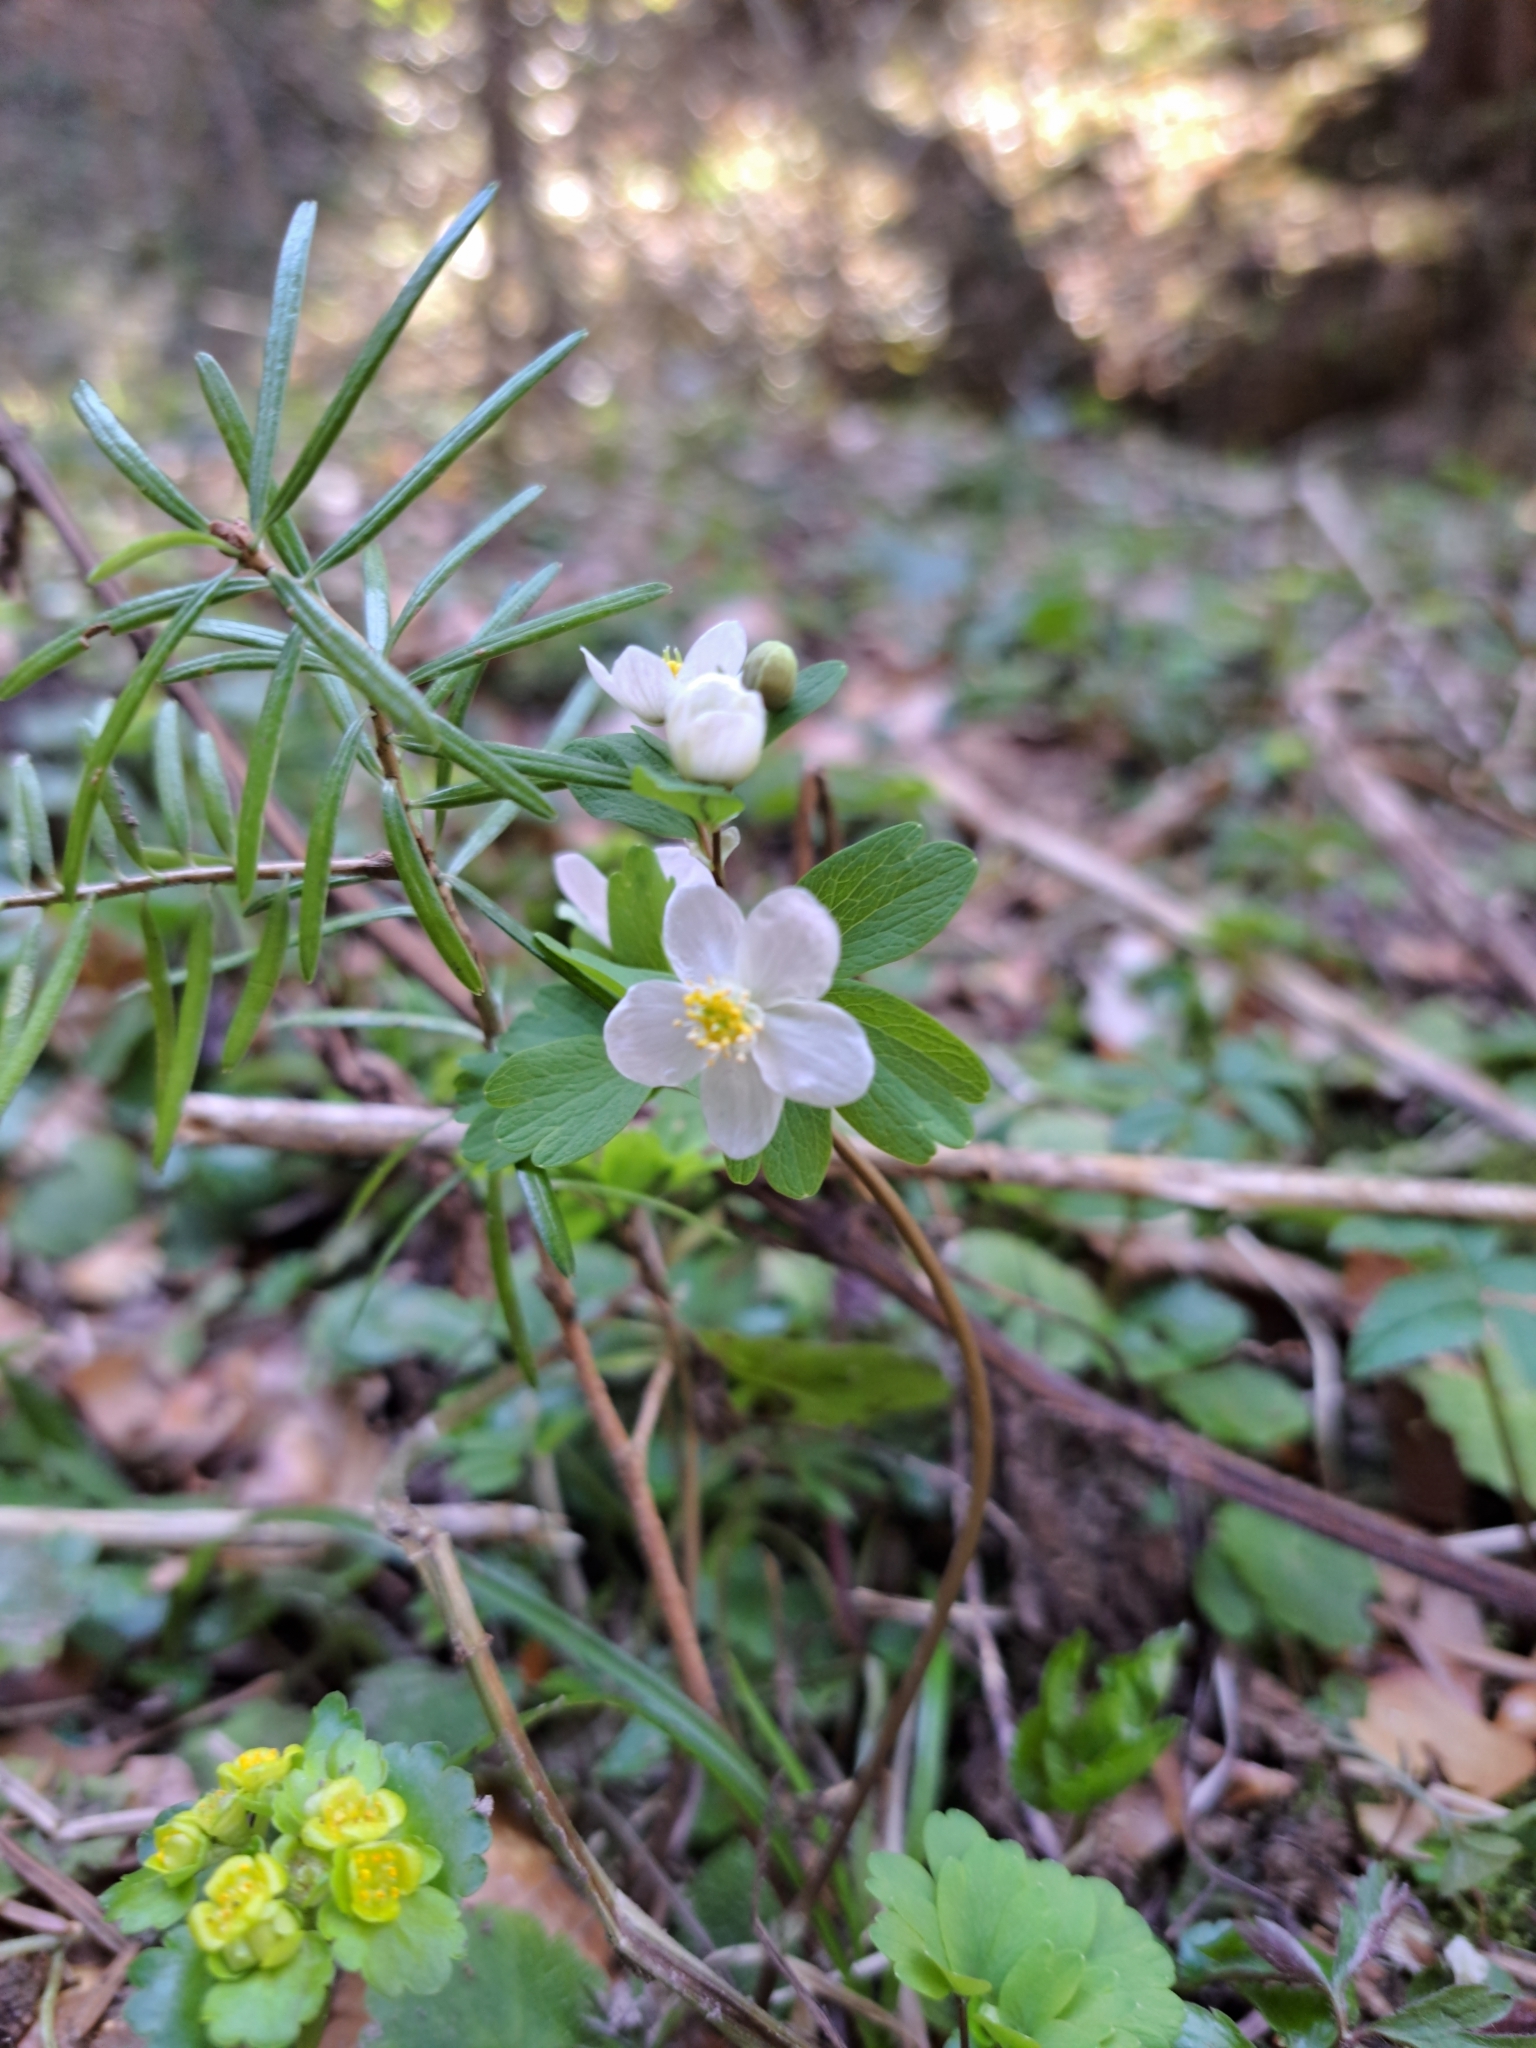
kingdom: Plantae
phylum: Tracheophyta
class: Magnoliopsida
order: Ranunculales
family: Ranunculaceae
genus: Isopyrum
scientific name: Isopyrum thalictroides
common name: Isopyrum
